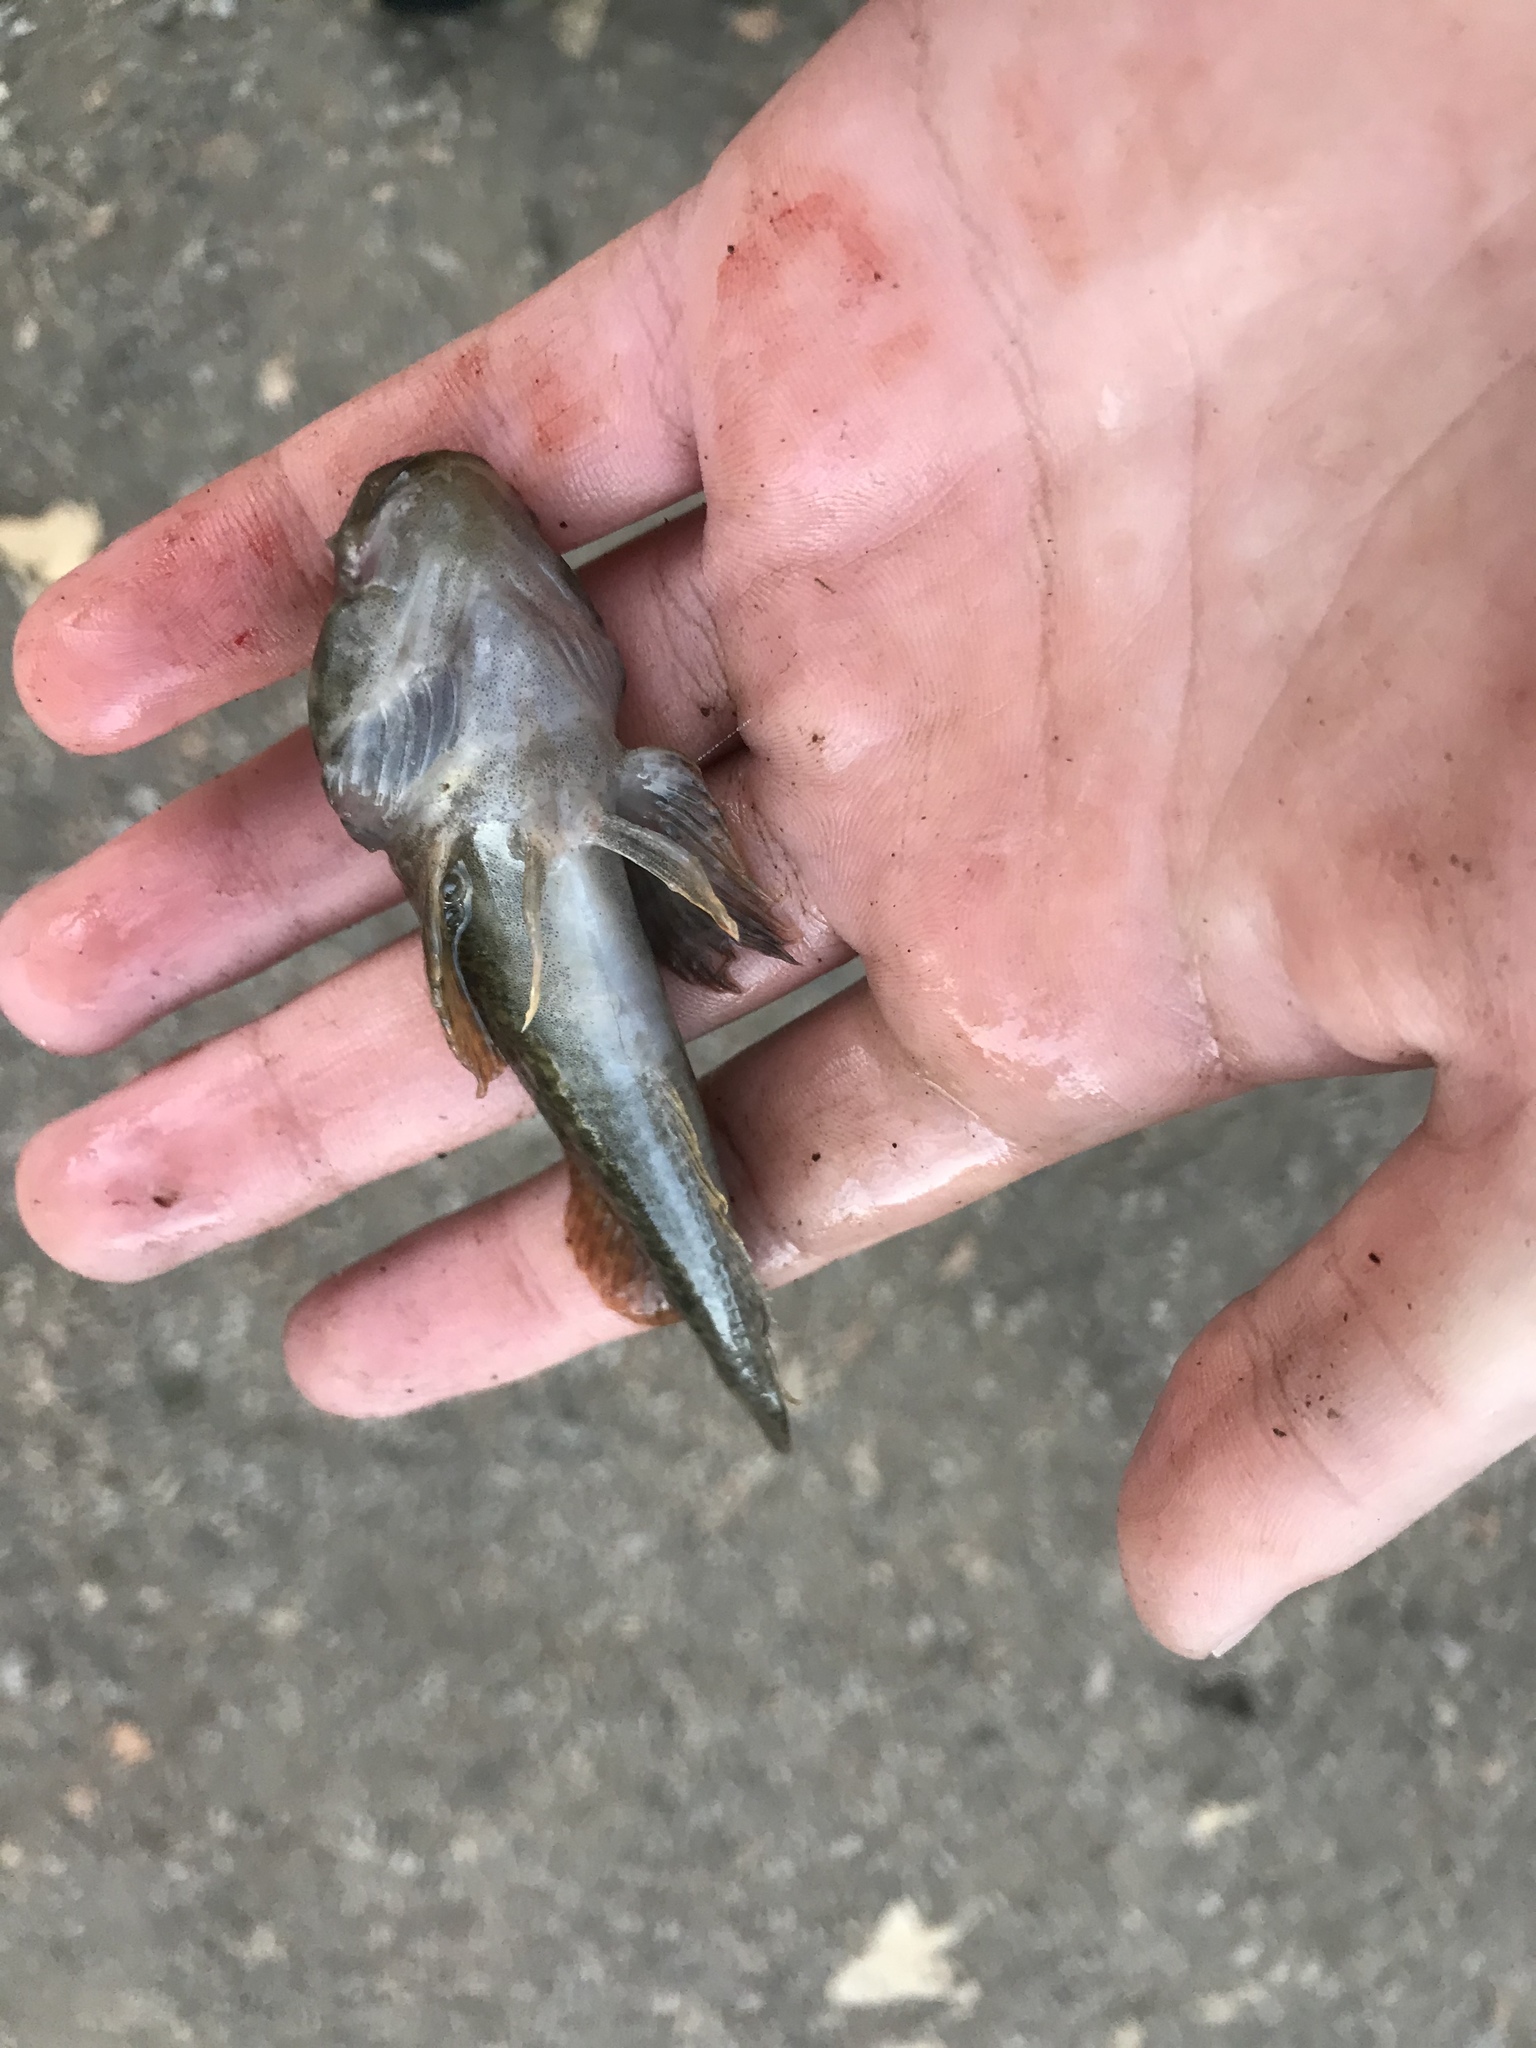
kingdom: Animalia
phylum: Chordata
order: Scorpaeniformes
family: Cottidae
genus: Cottus
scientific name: Cottus asper
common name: Prickly sculpin
